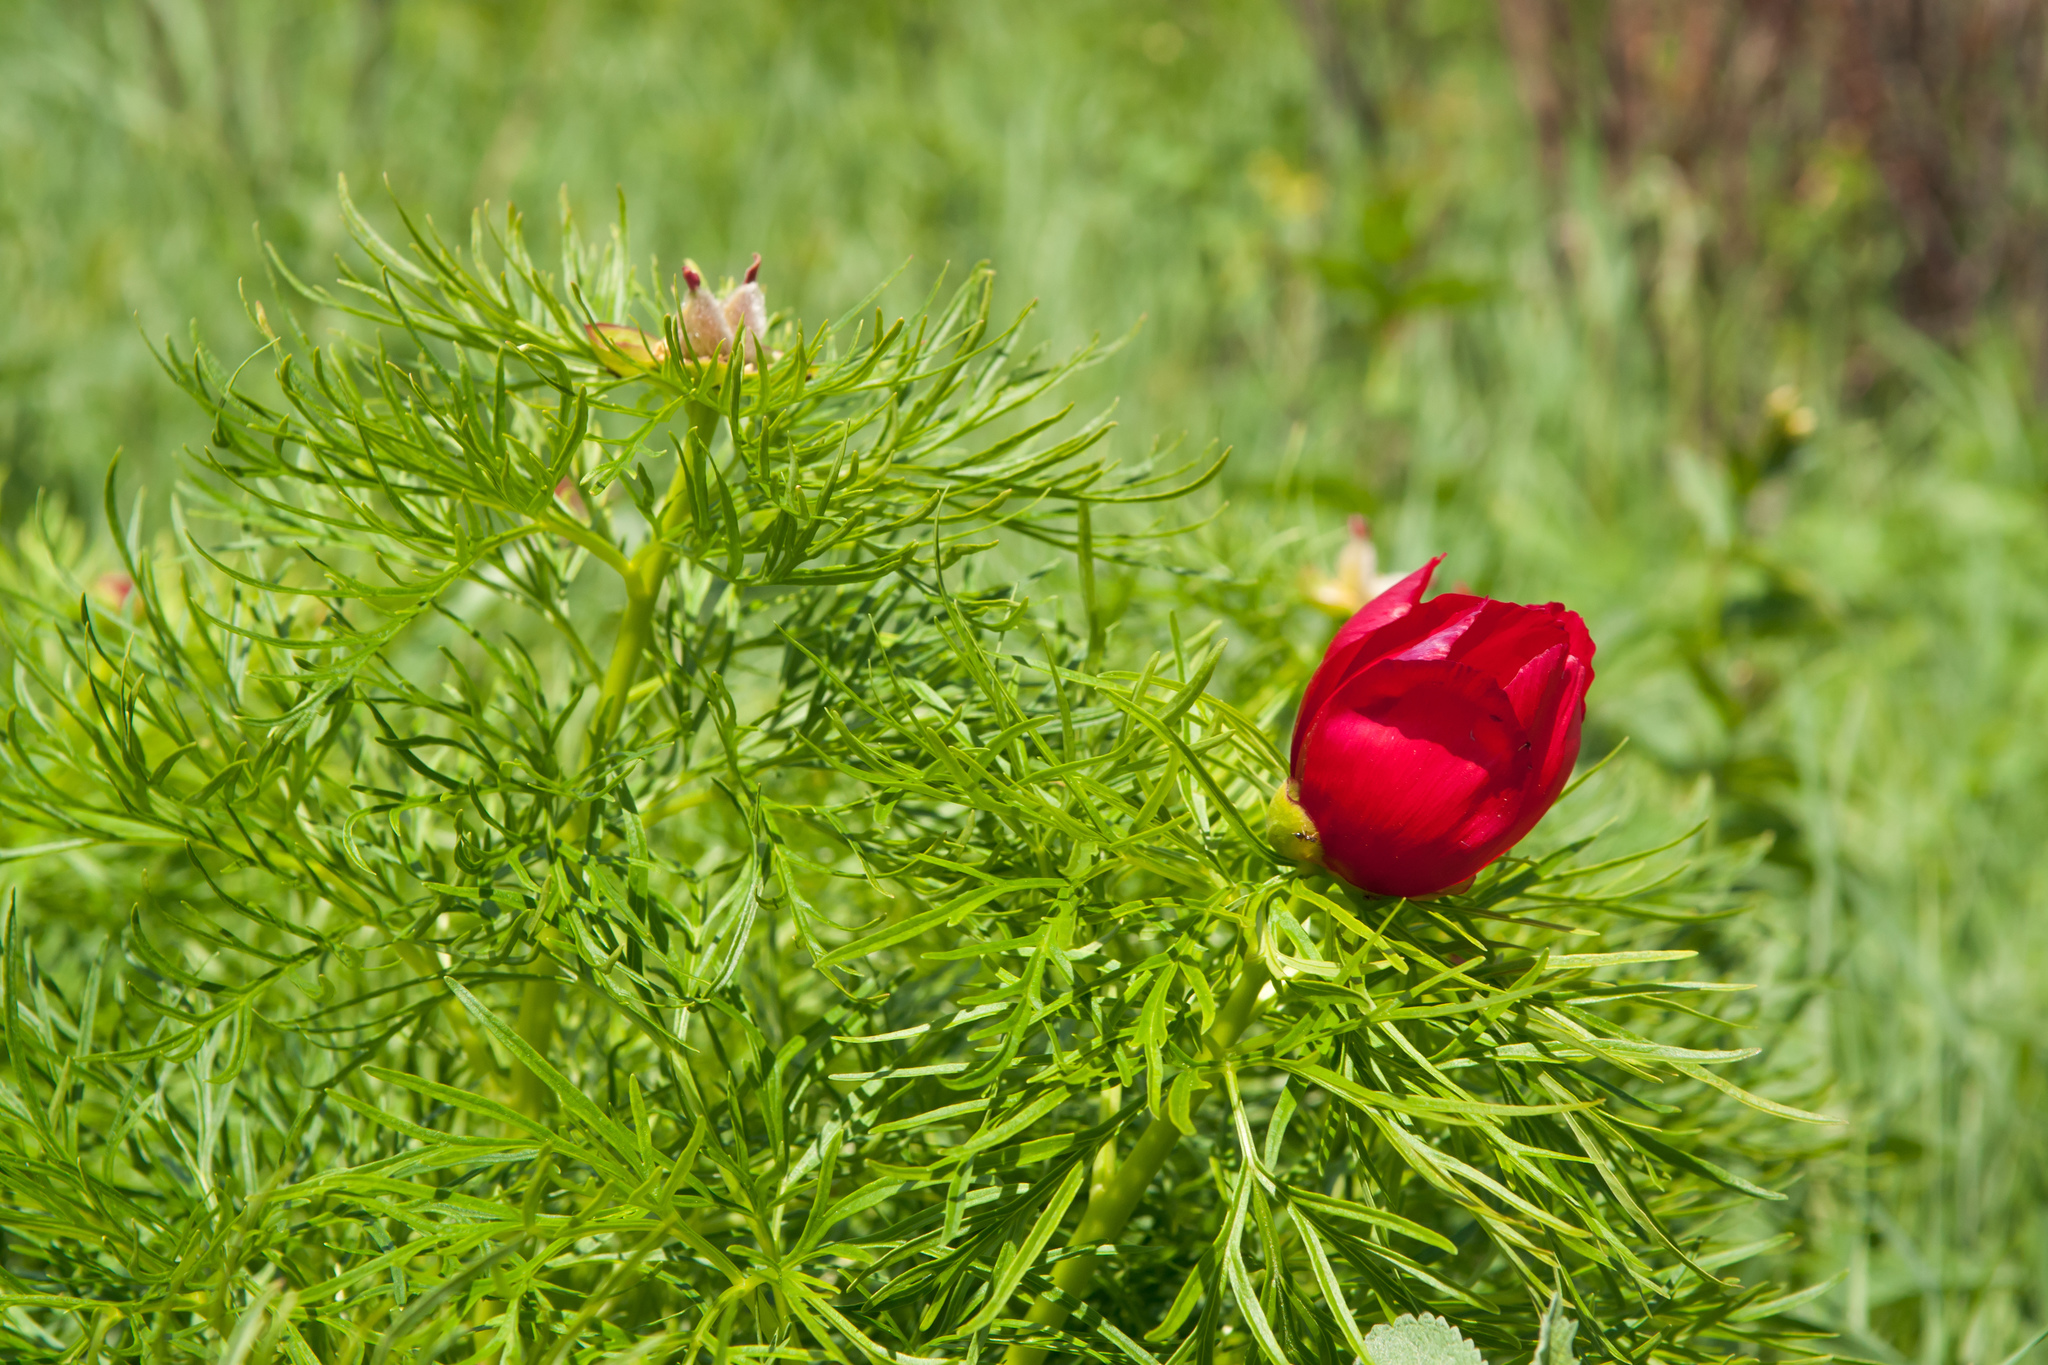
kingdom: Plantae
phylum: Tracheophyta
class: Magnoliopsida
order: Saxifragales
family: Paeoniaceae
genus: Paeonia
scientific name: Paeonia tenuifolia
